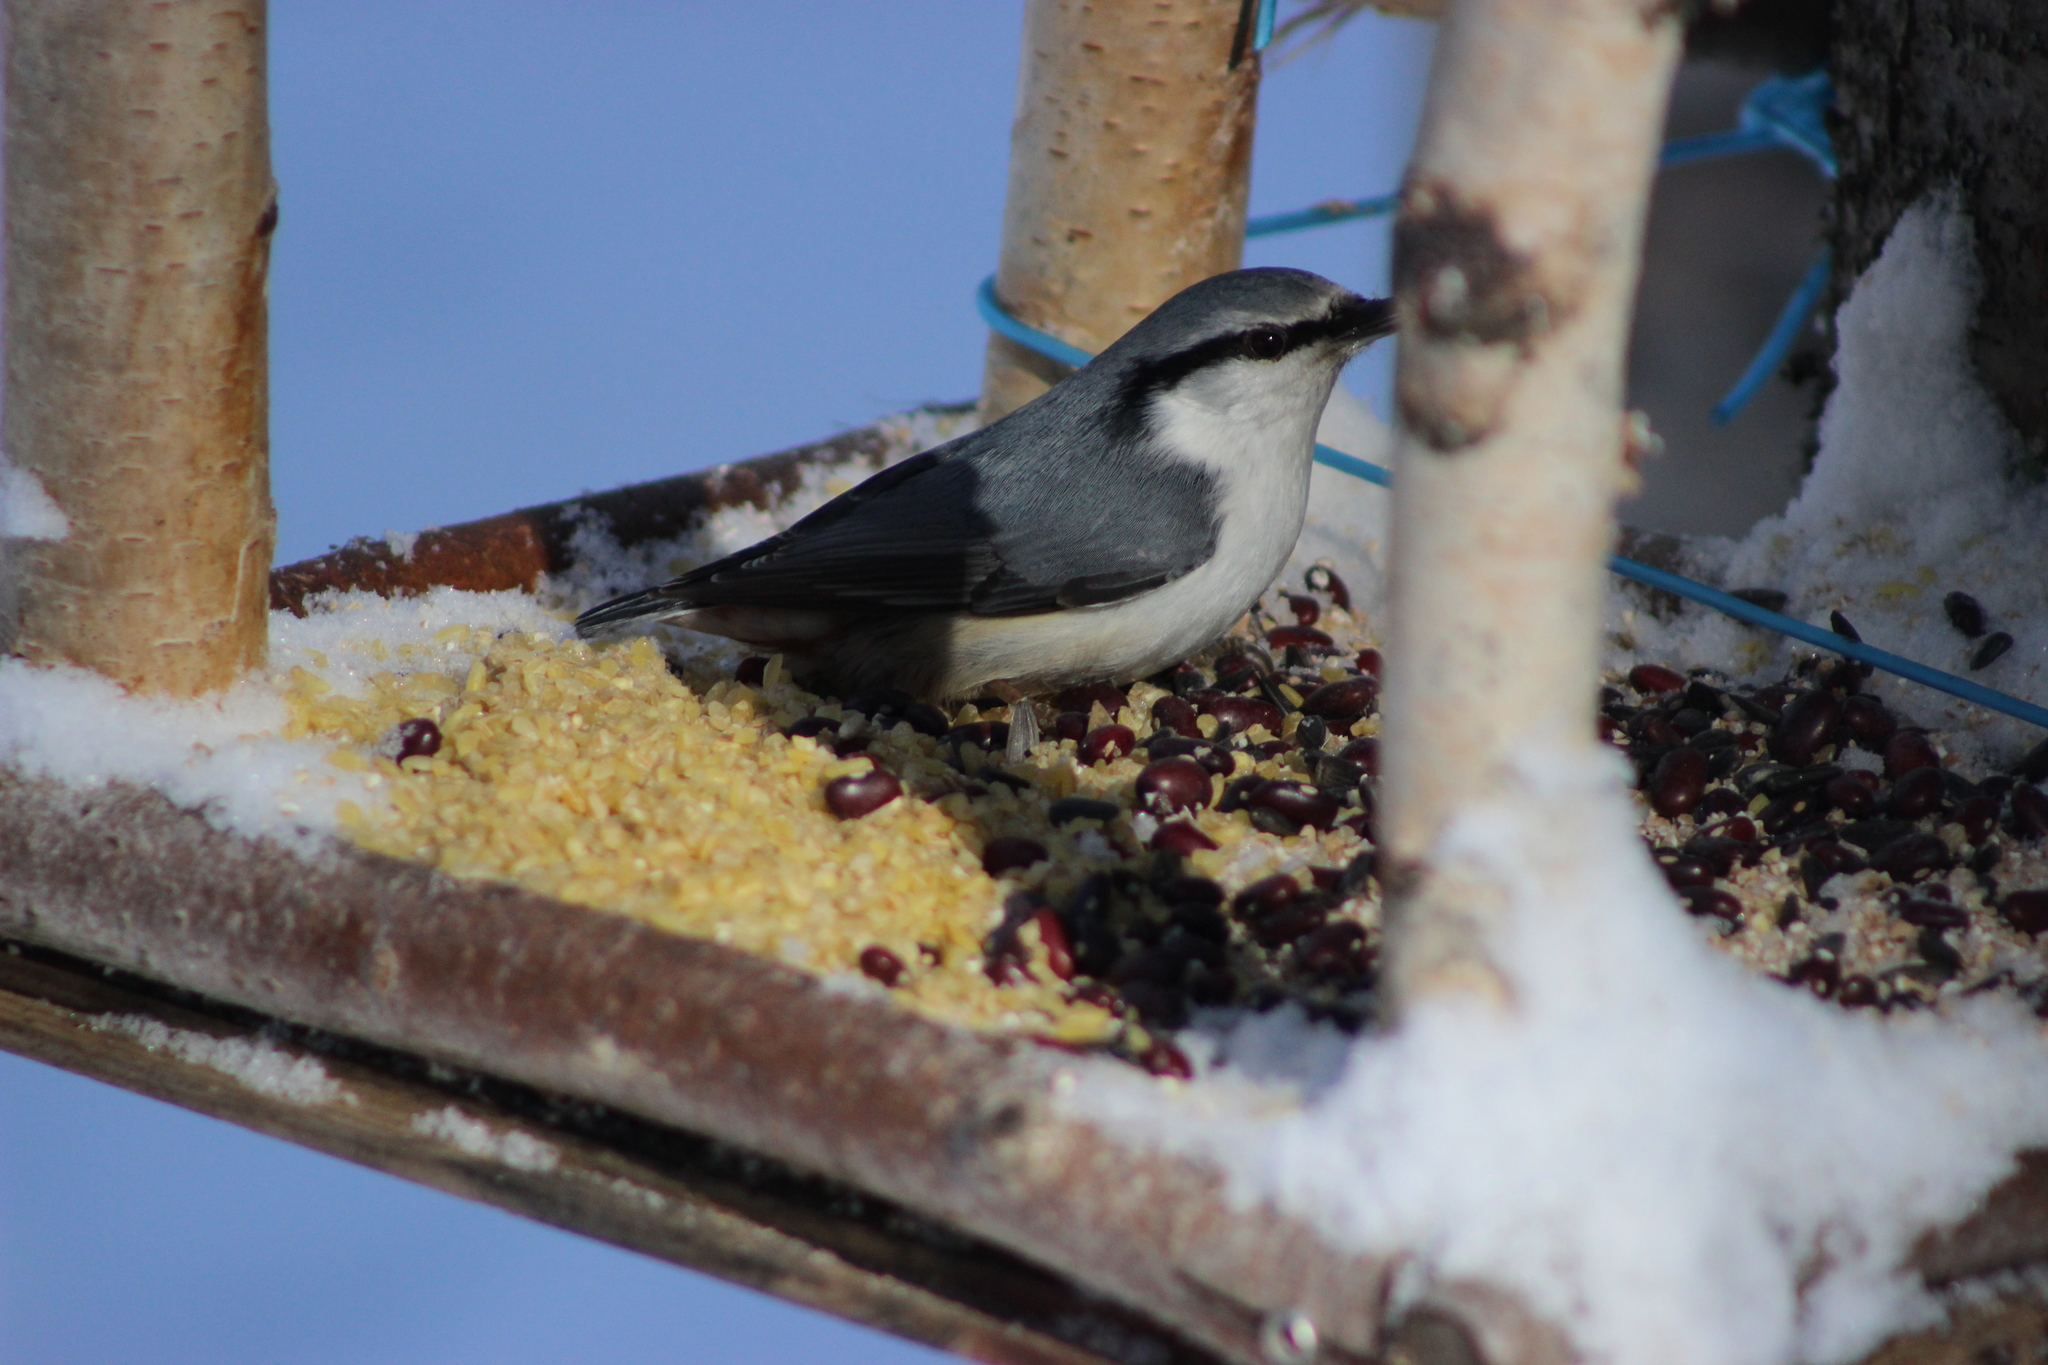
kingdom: Animalia
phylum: Chordata
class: Aves
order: Passeriformes
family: Sittidae
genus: Sitta
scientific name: Sitta europaea
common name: Eurasian nuthatch
